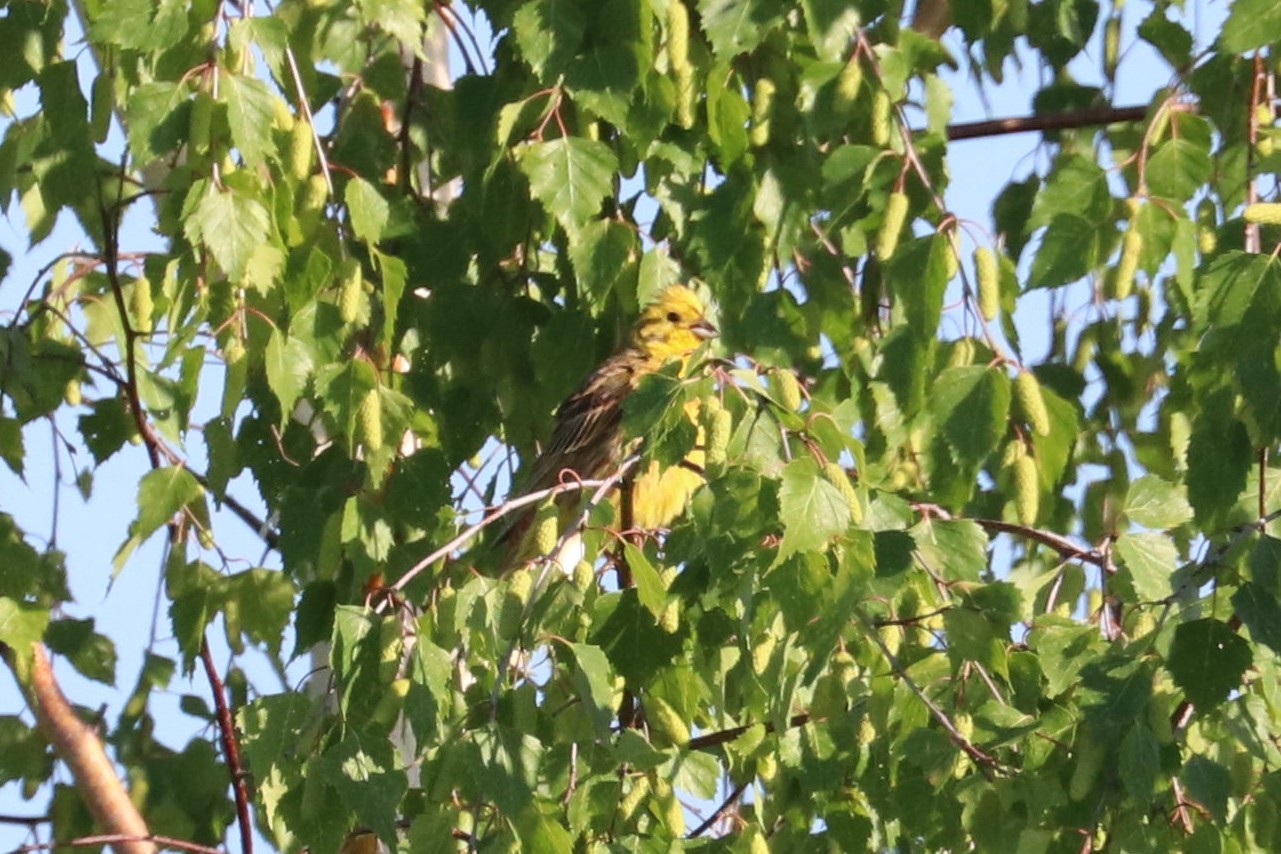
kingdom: Animalia
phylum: Chordata
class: Aves
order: Passeriformes
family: Emberizidae
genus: Emberiza
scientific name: Emberiza citrinella
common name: Yellowhammer
